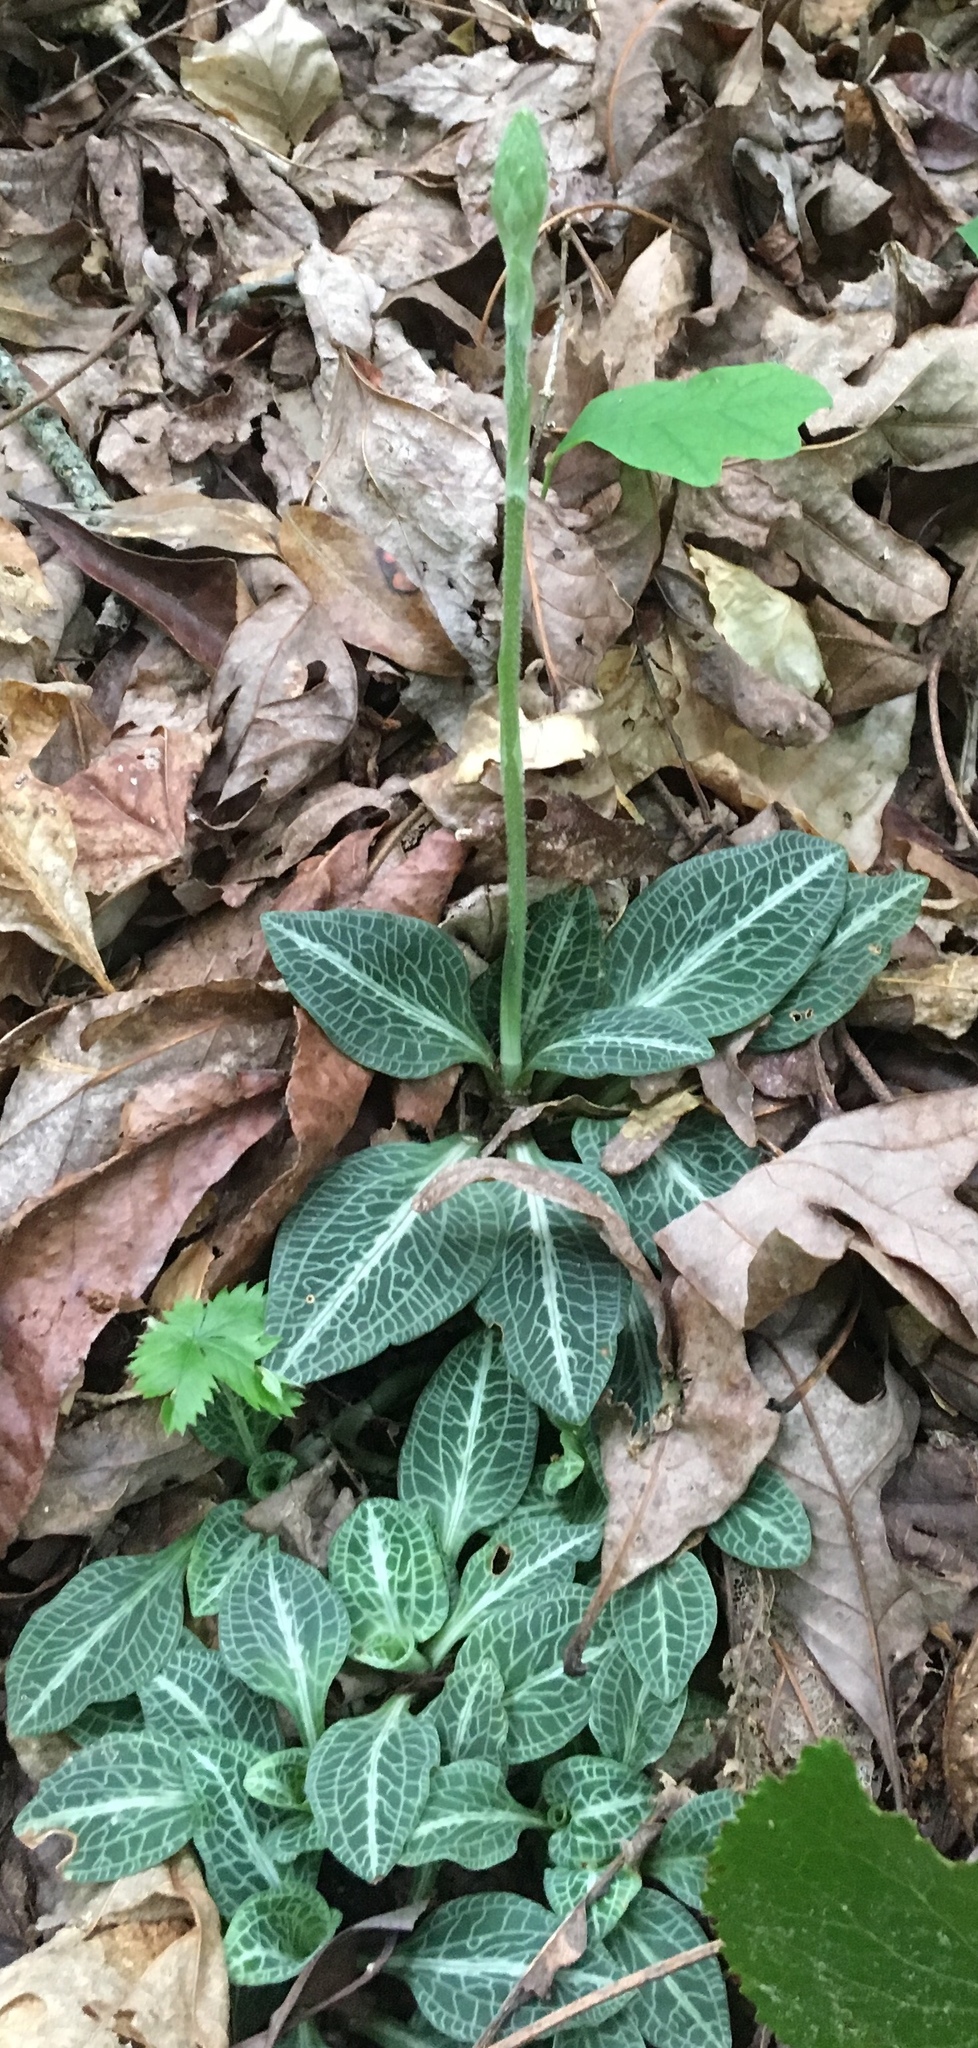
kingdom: Plantae
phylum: Tracheophyta
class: Liliopsida
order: Asparagales
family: Orchidaceae
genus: Goodyera
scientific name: Goodyera pubescens
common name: Downy rattlesnake-plantain
